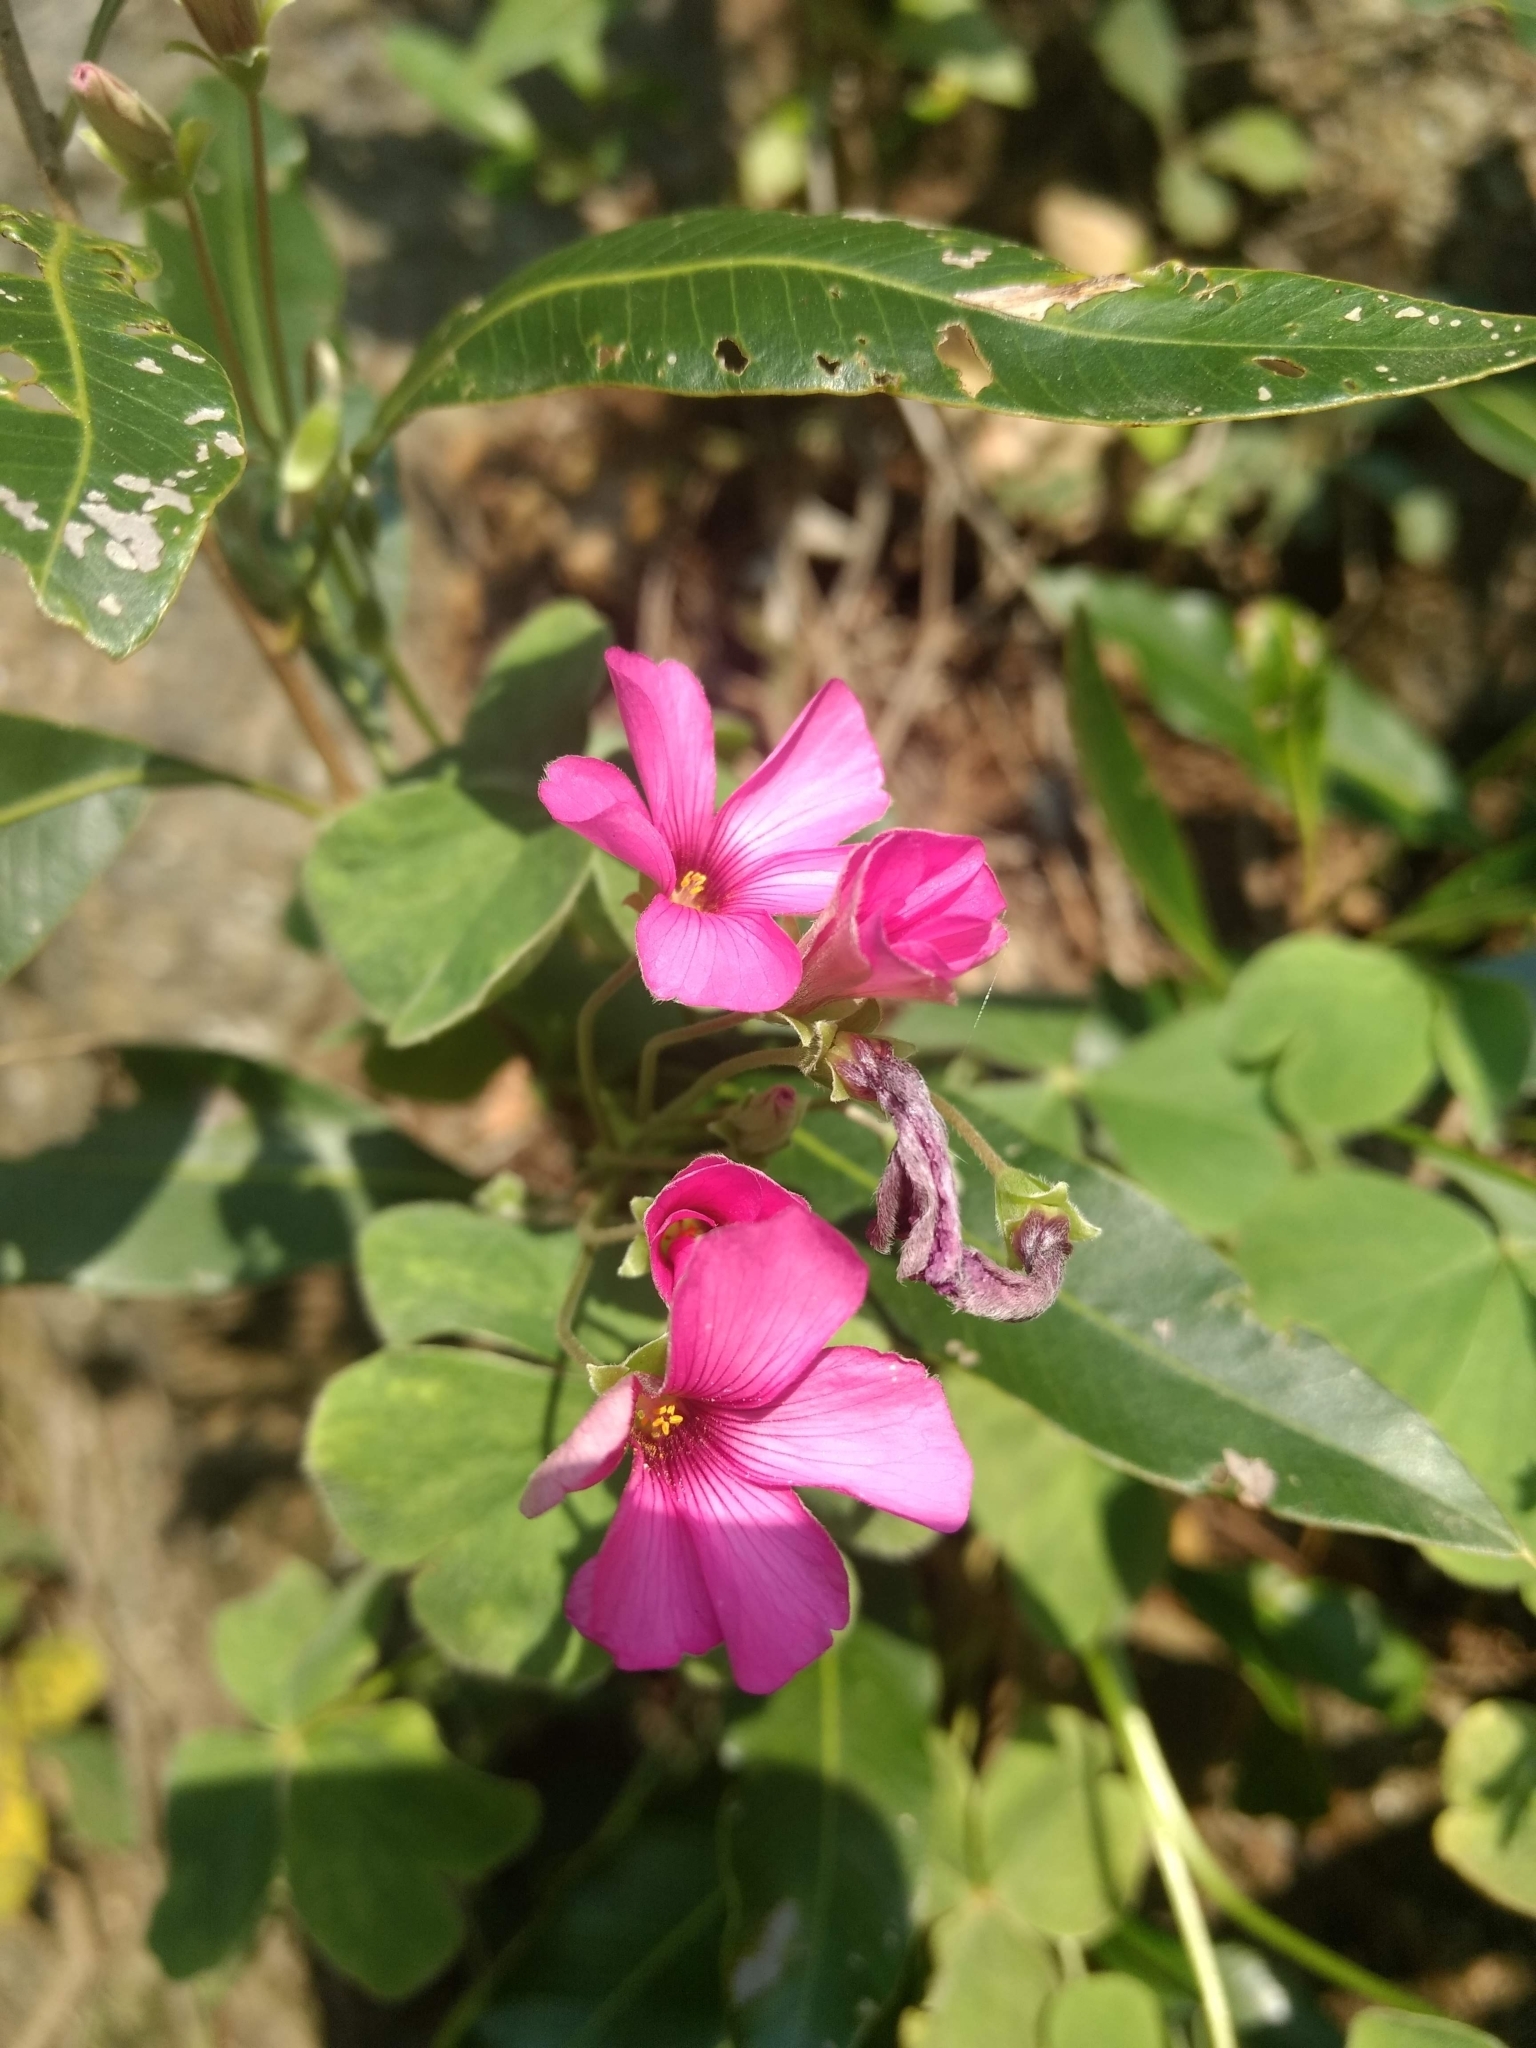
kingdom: Plantae
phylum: Tracheophyta
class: Magnoliopsida
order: Oxalidales
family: Oxalidaceae
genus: Oxalis
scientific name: Oxalis articulata
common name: Pink-sorrel
